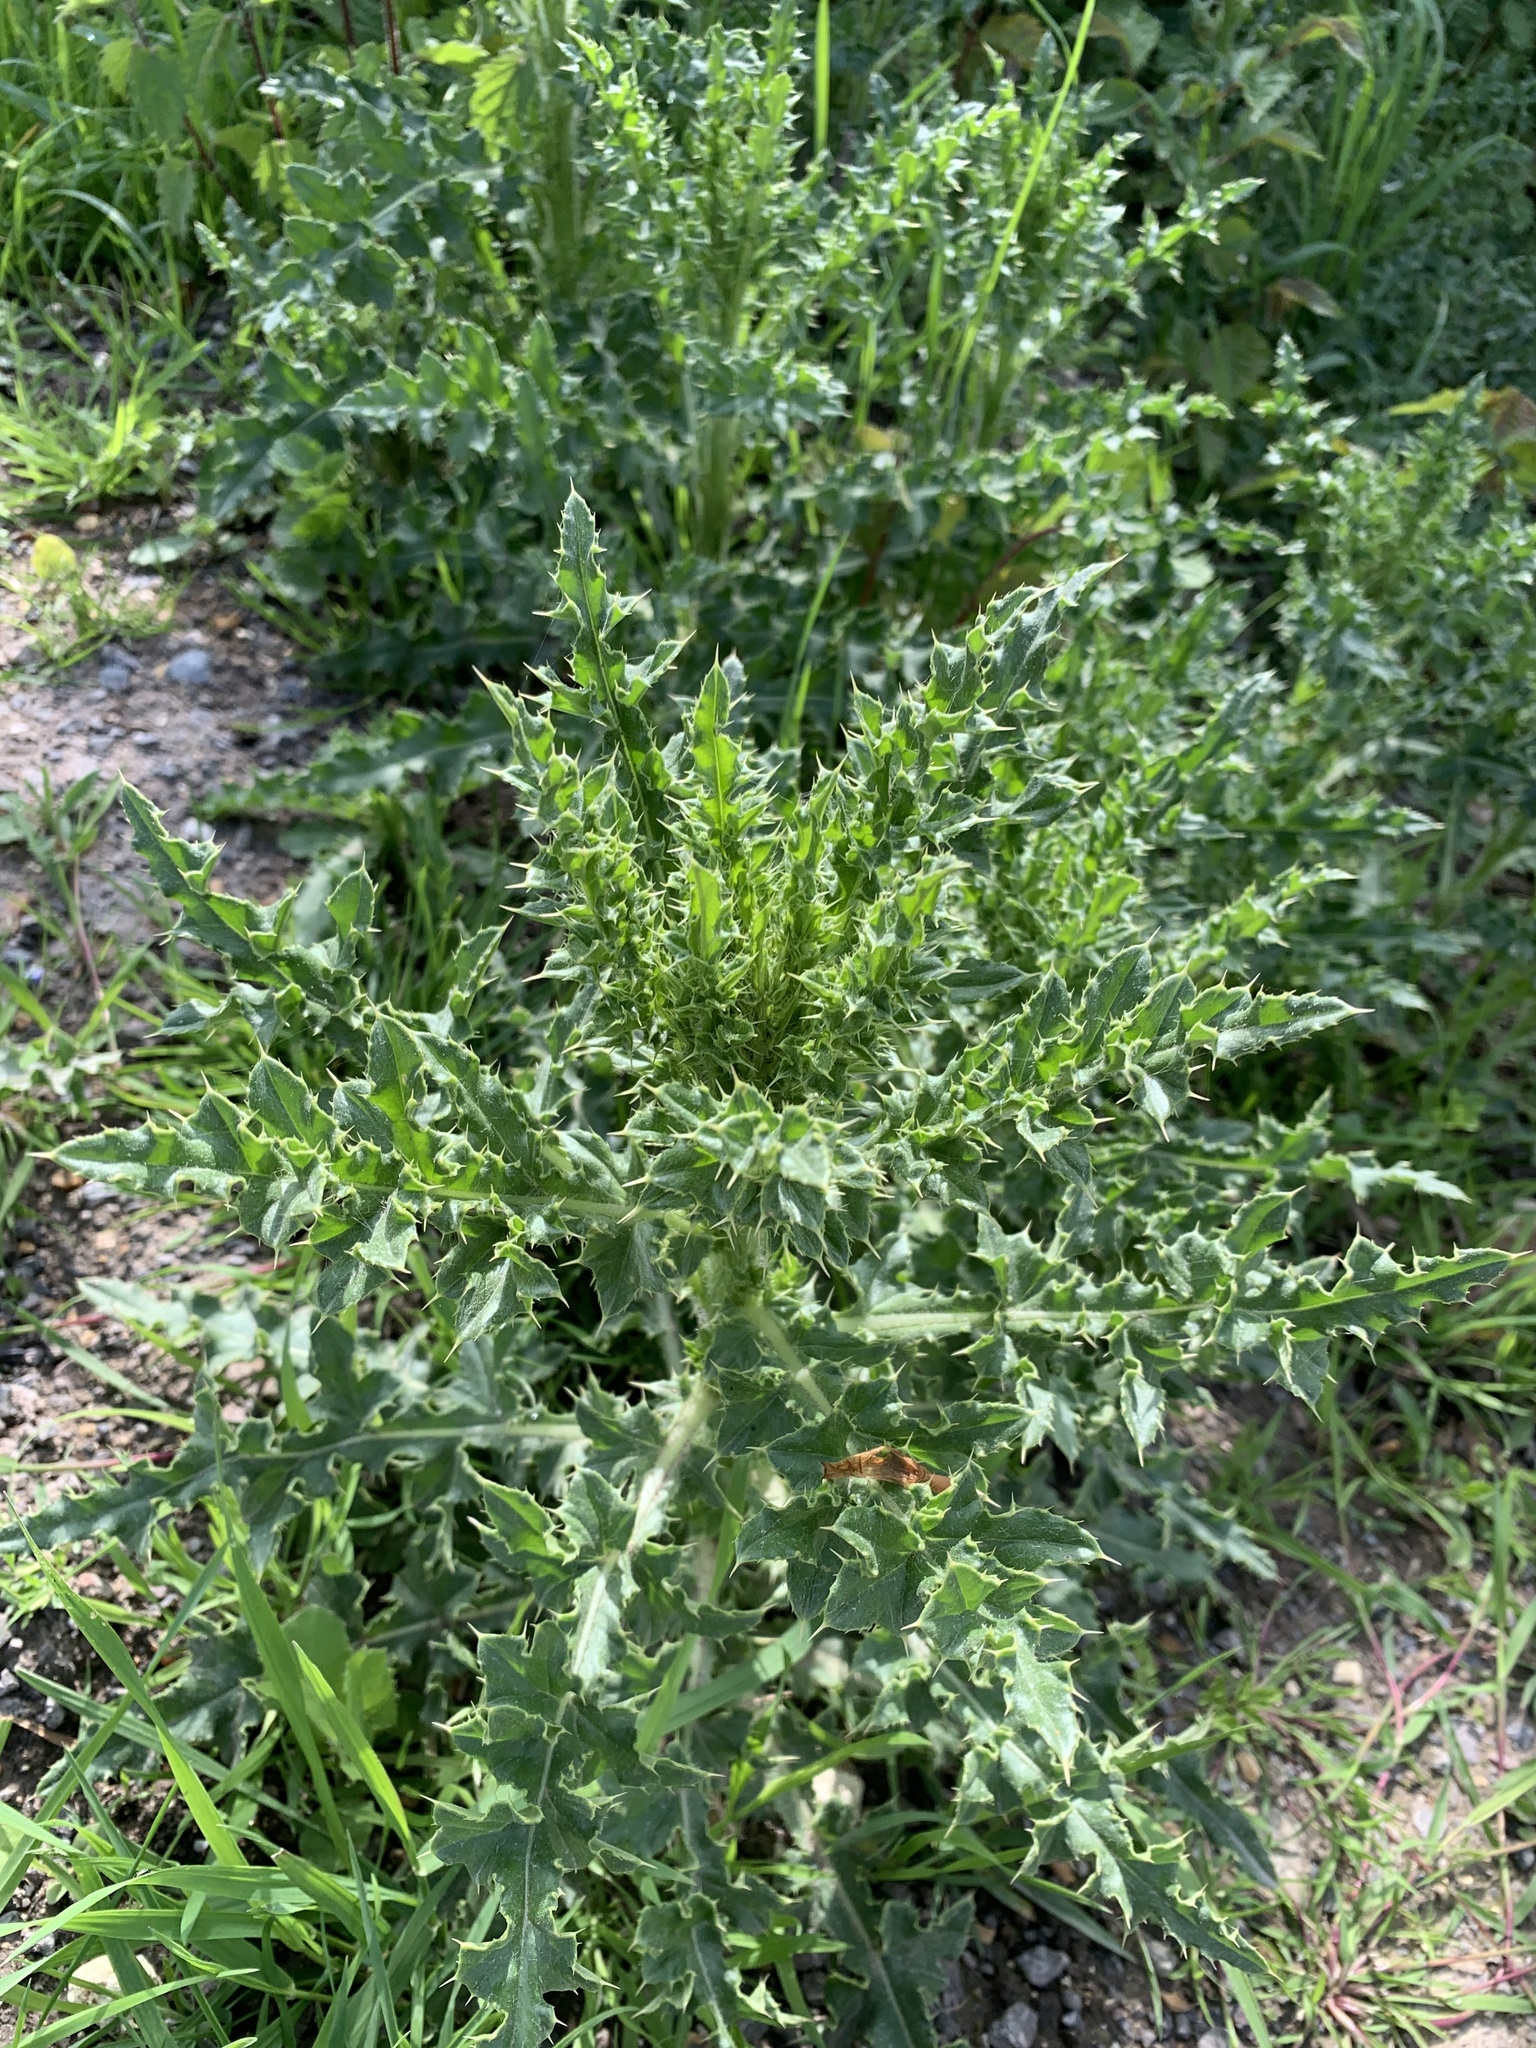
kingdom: Plantae
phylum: Tracheophyta
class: Magnoliopsida
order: Asterales
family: Asteraceae
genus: Cirsium
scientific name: Cirsium arvense
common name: Creeping thistle
